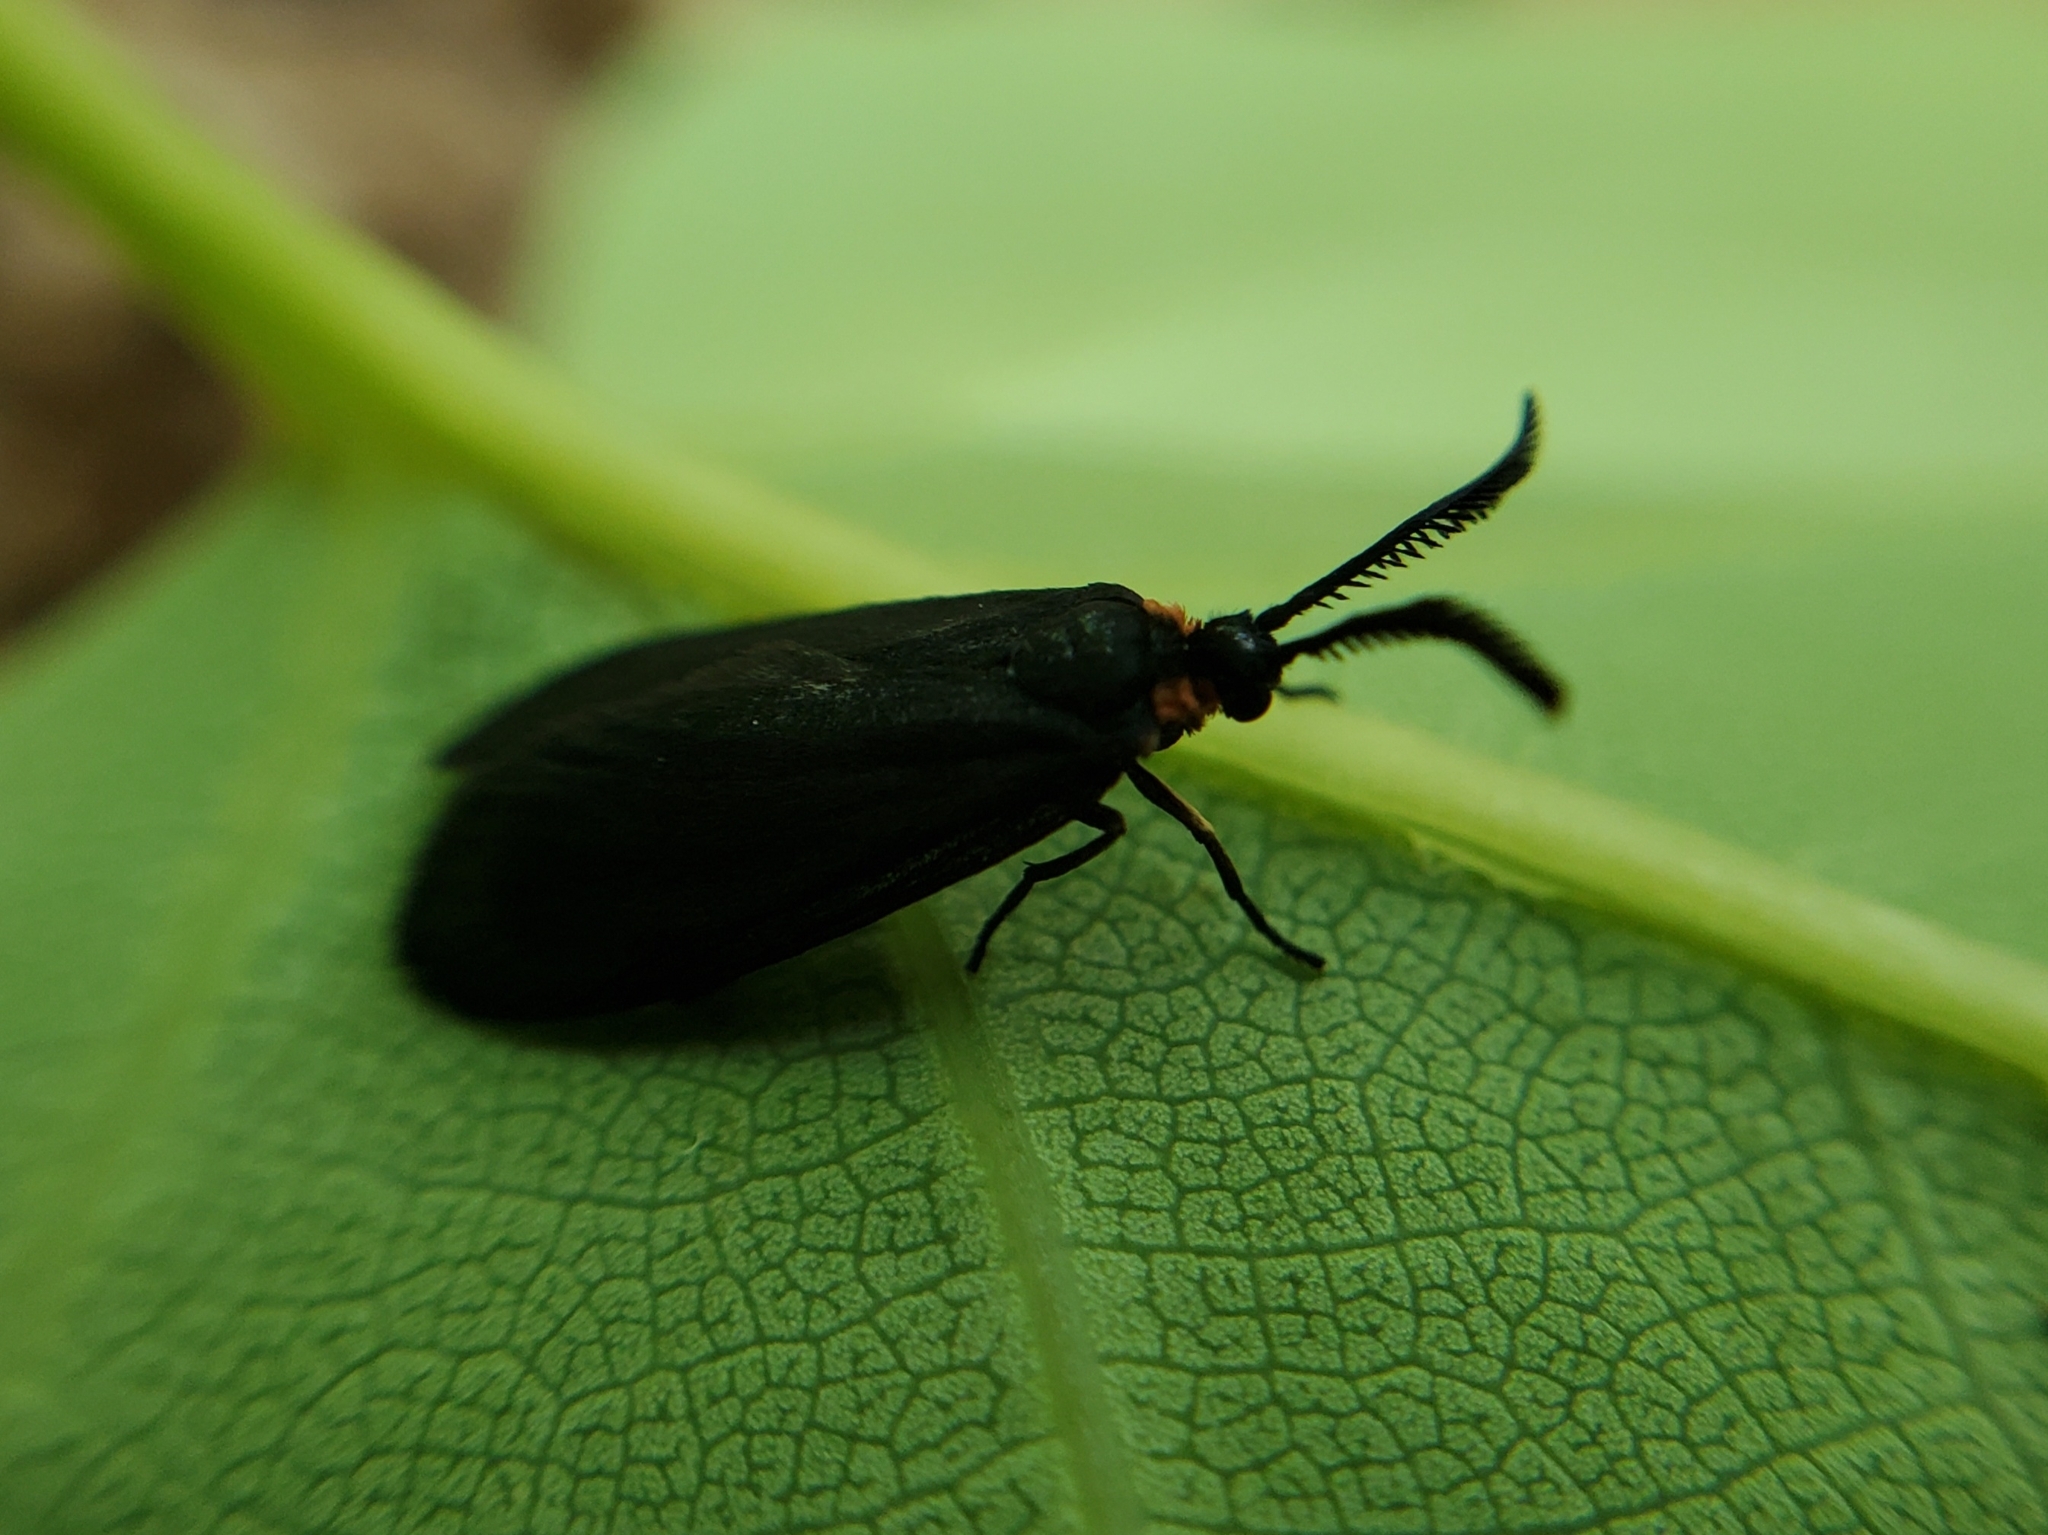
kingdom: Animalia
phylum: Arthropoda
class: Insecta
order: Lepidoptera
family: Zygaenidae
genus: Acoloithus
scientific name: Acoloithus falsarius
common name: Clemens' false skeletonizer
